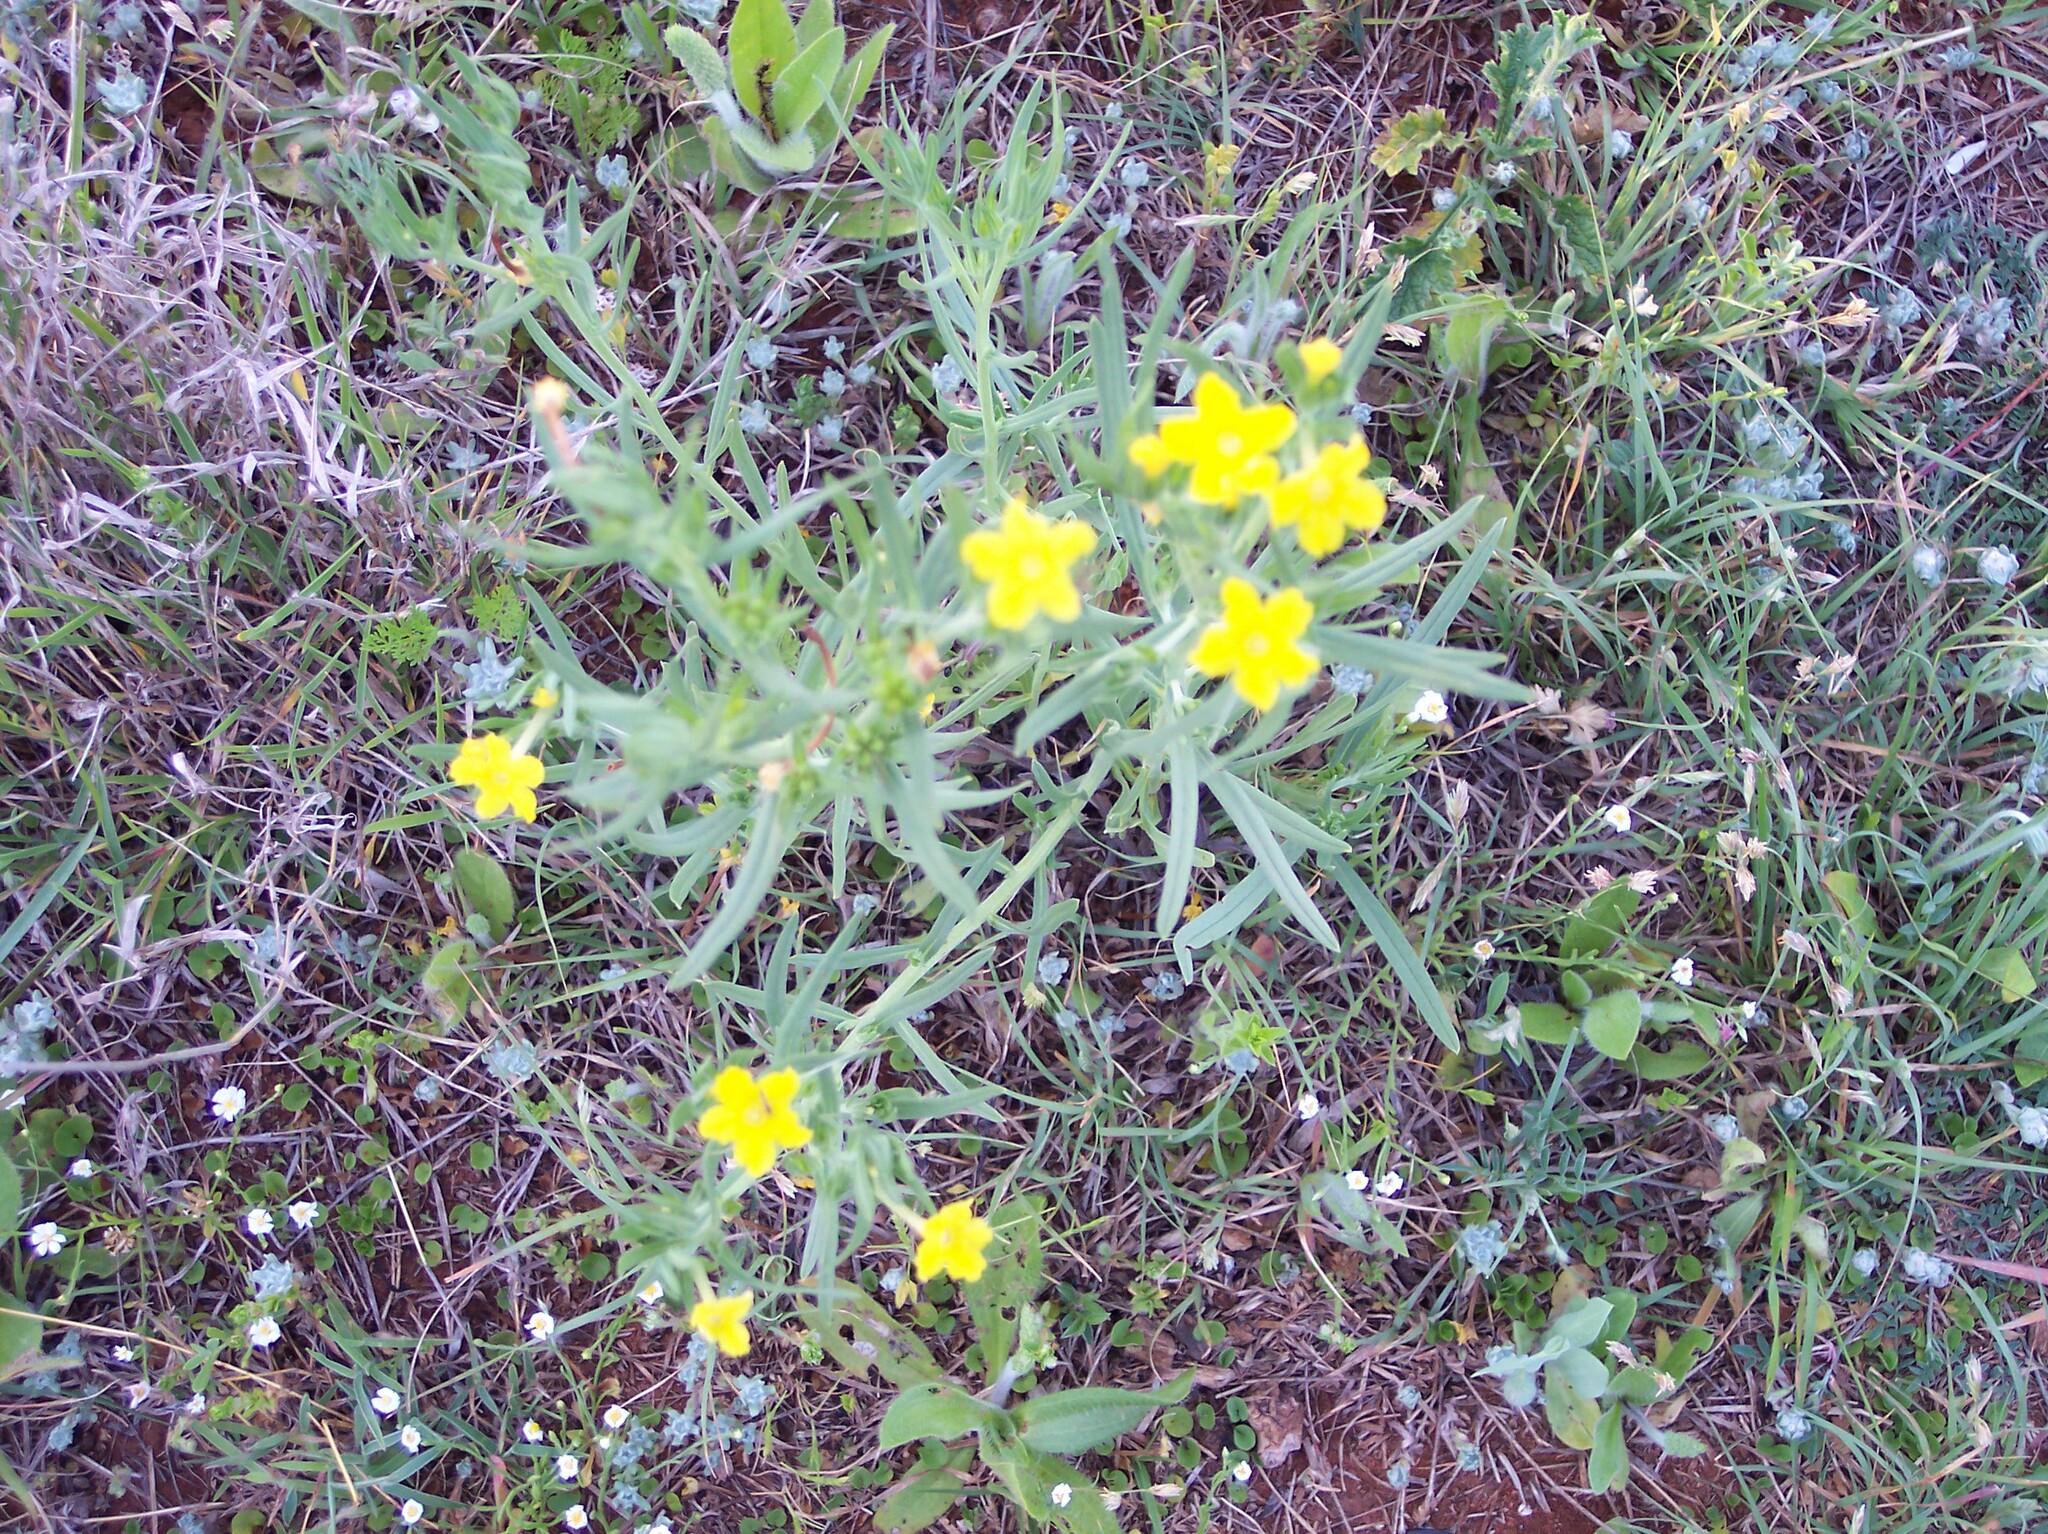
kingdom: Plantae
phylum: Tracheophyta
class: Magnoliopsida
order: Boraginales
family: Boraginaceae
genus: Lithospermum
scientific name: Lithospermum mirabile
